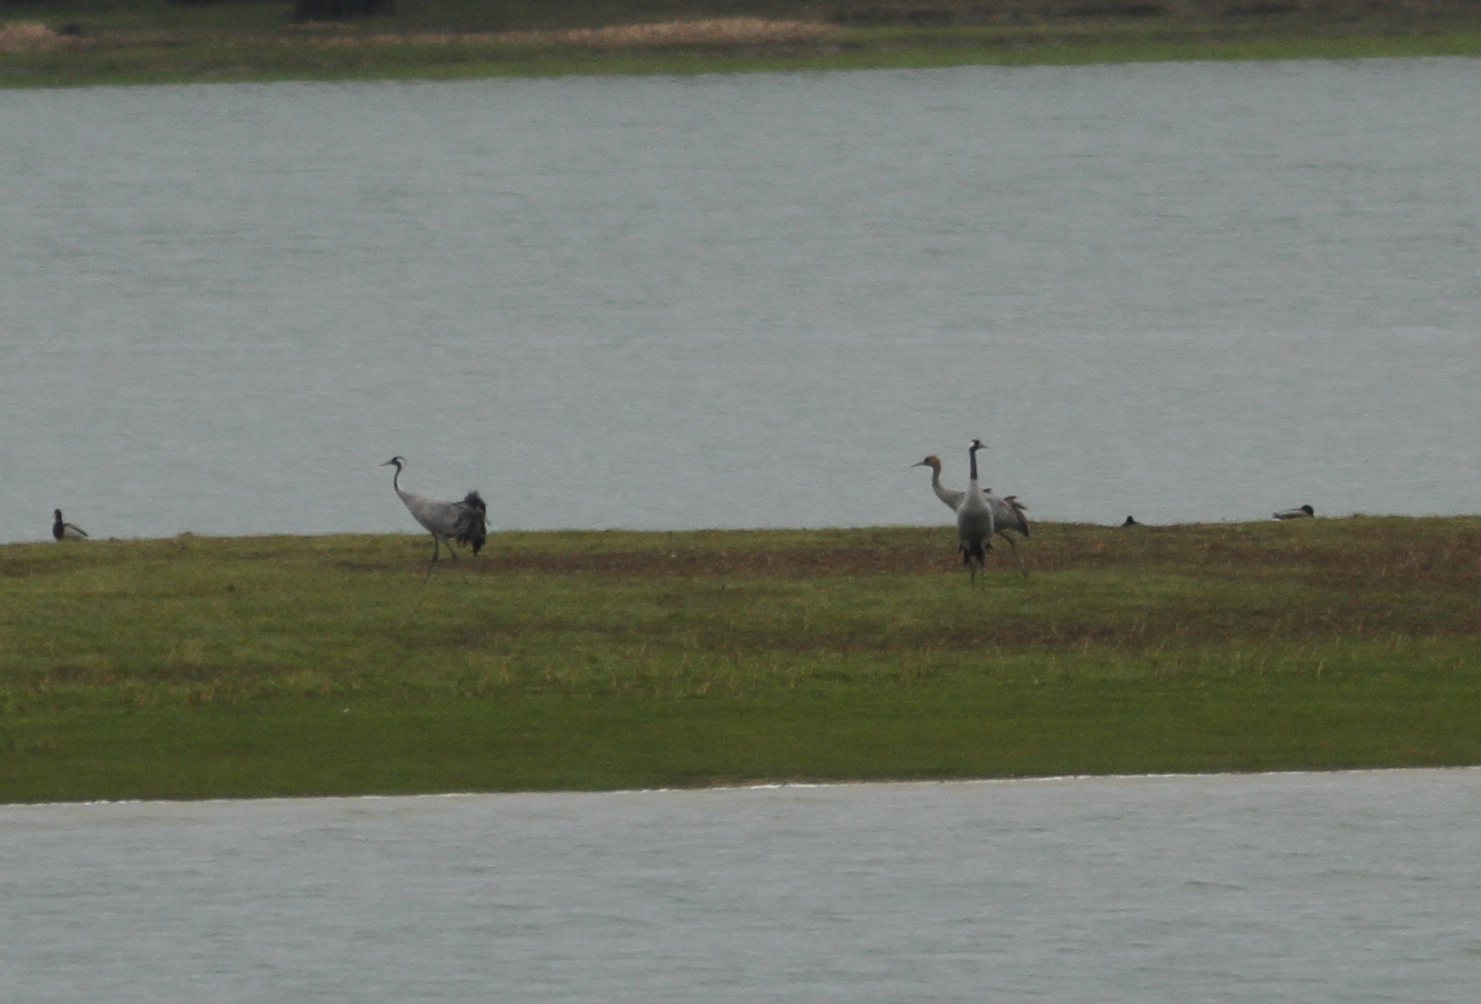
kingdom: Animalia
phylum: Chordata
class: Aves
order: Gruiformes
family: Gruidae
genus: Grus
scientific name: Grus grus
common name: Common crane
